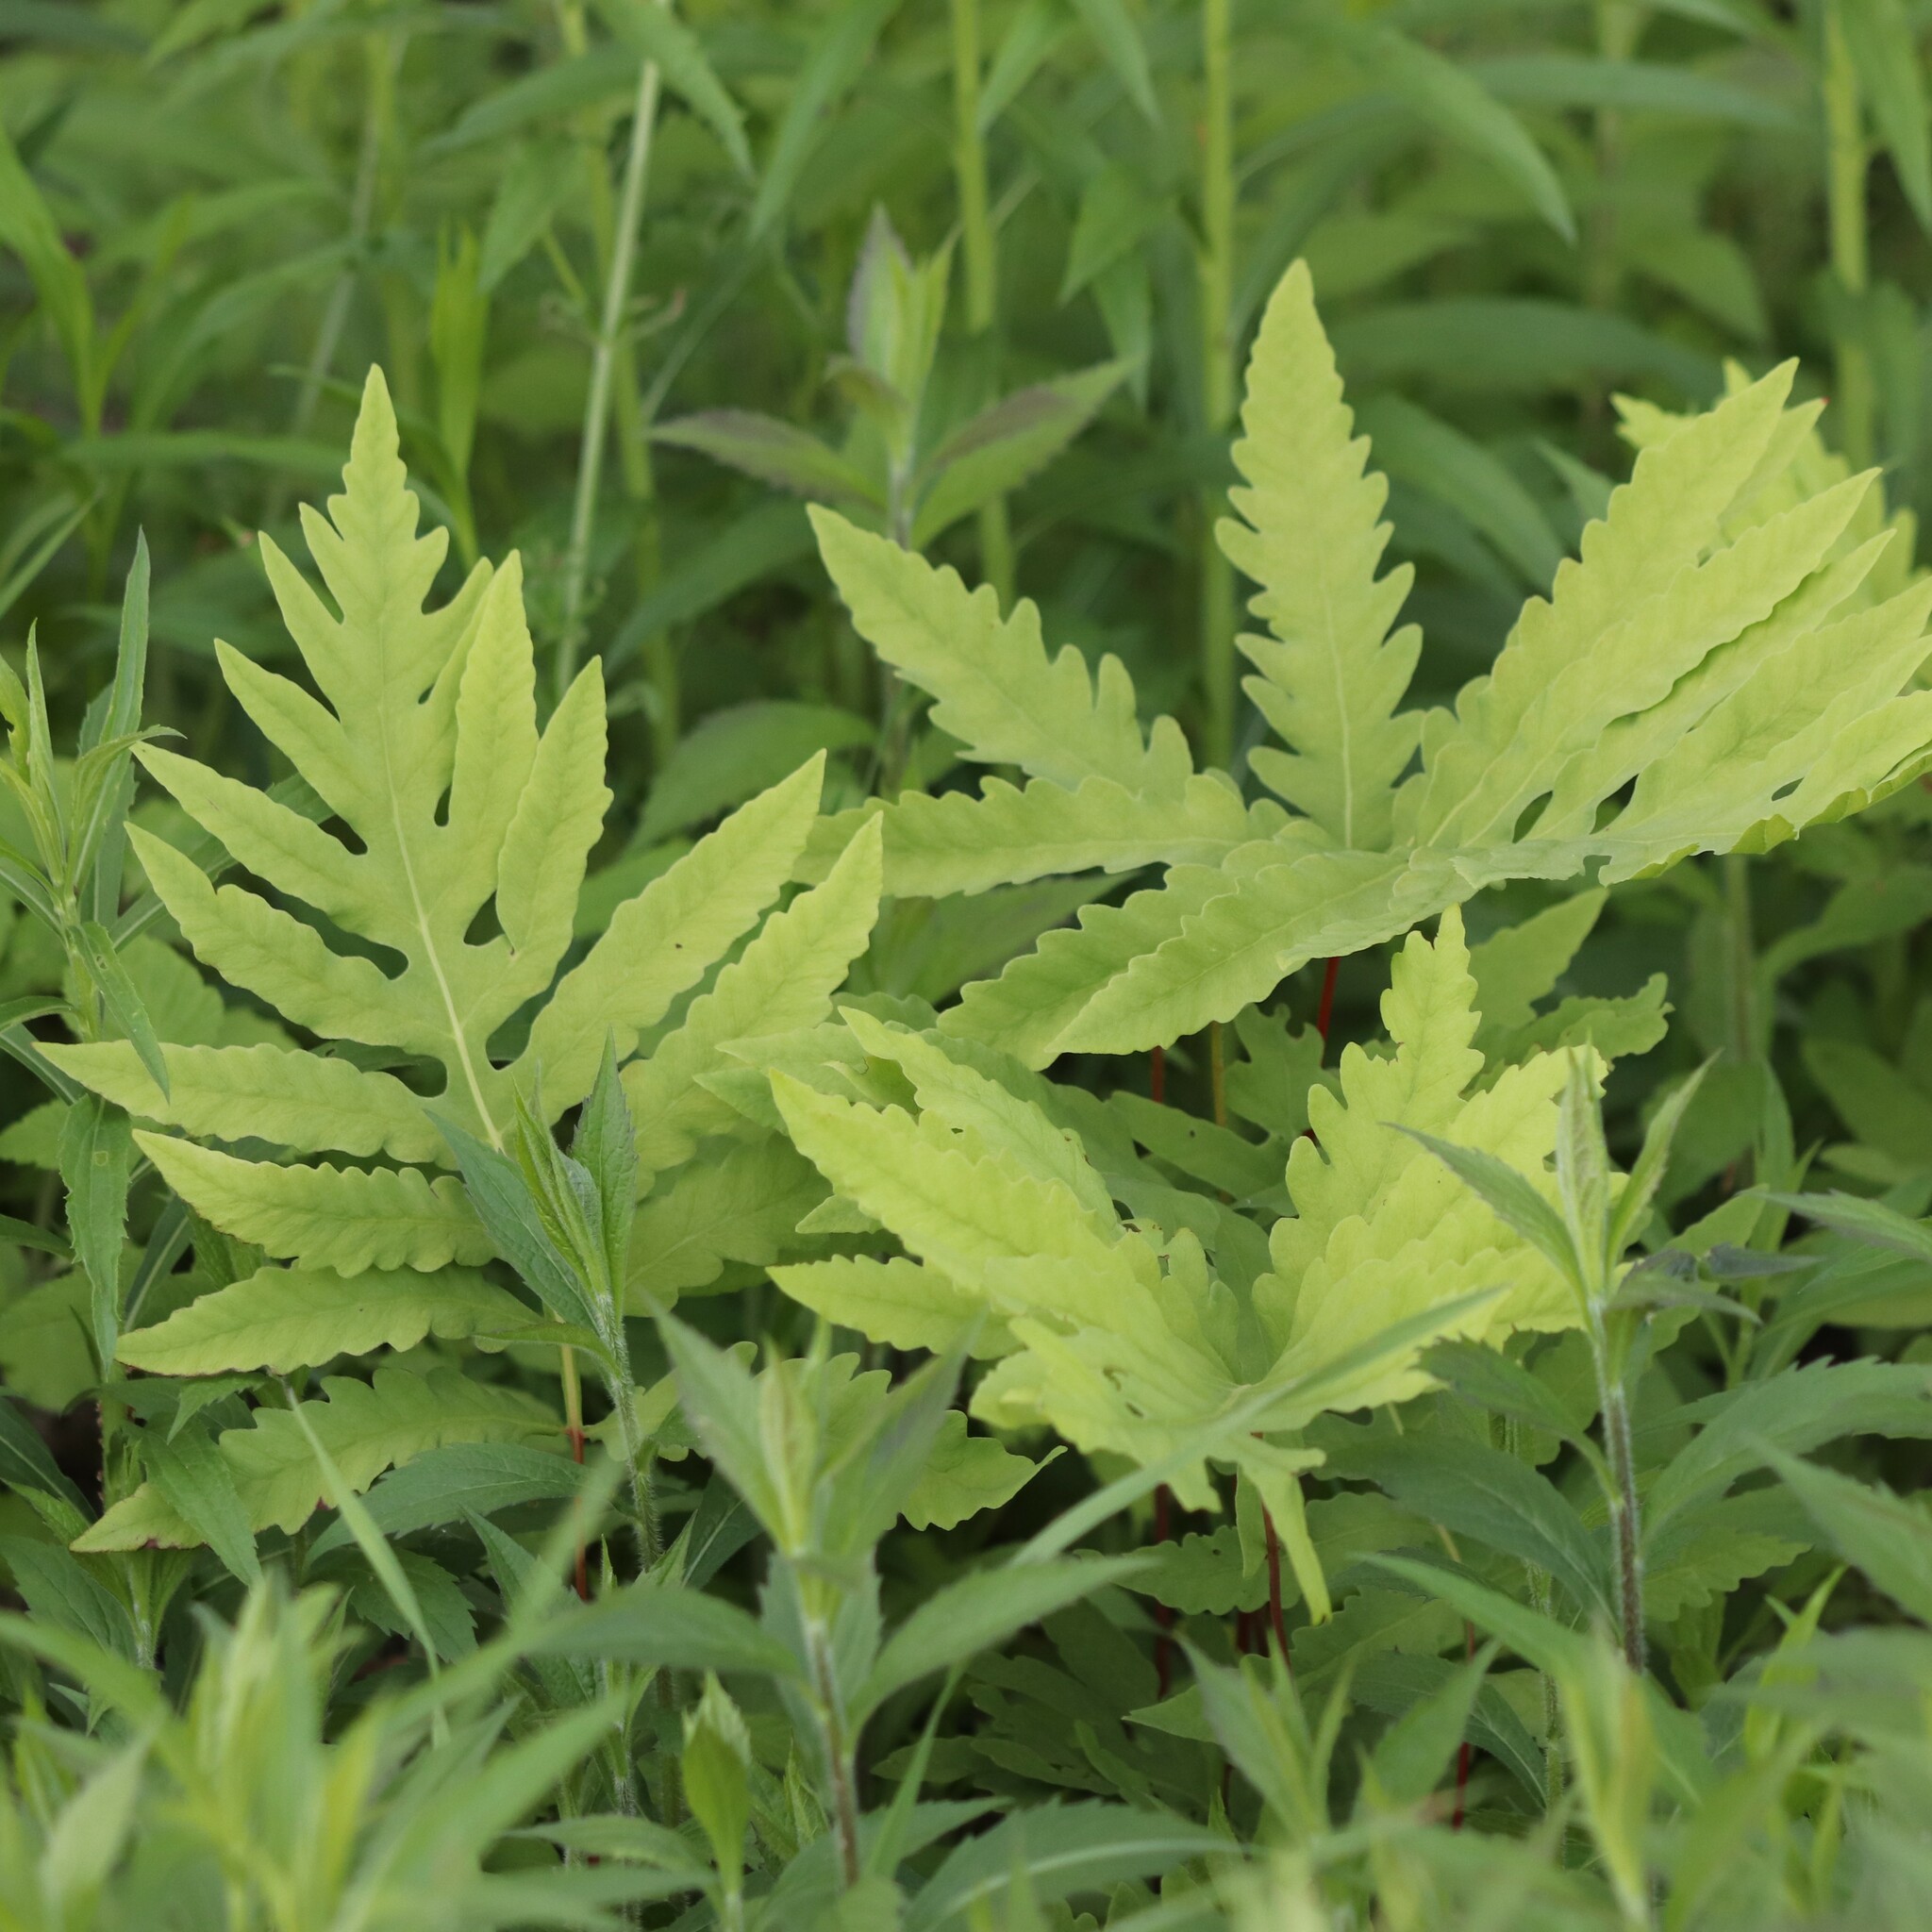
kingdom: Plantae
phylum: Tracheophyta
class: Polypodiopsida
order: Polypodiales
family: Onocleaceae
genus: Onoclea
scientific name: Onoclea sensibilis
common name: Sensitive fern
